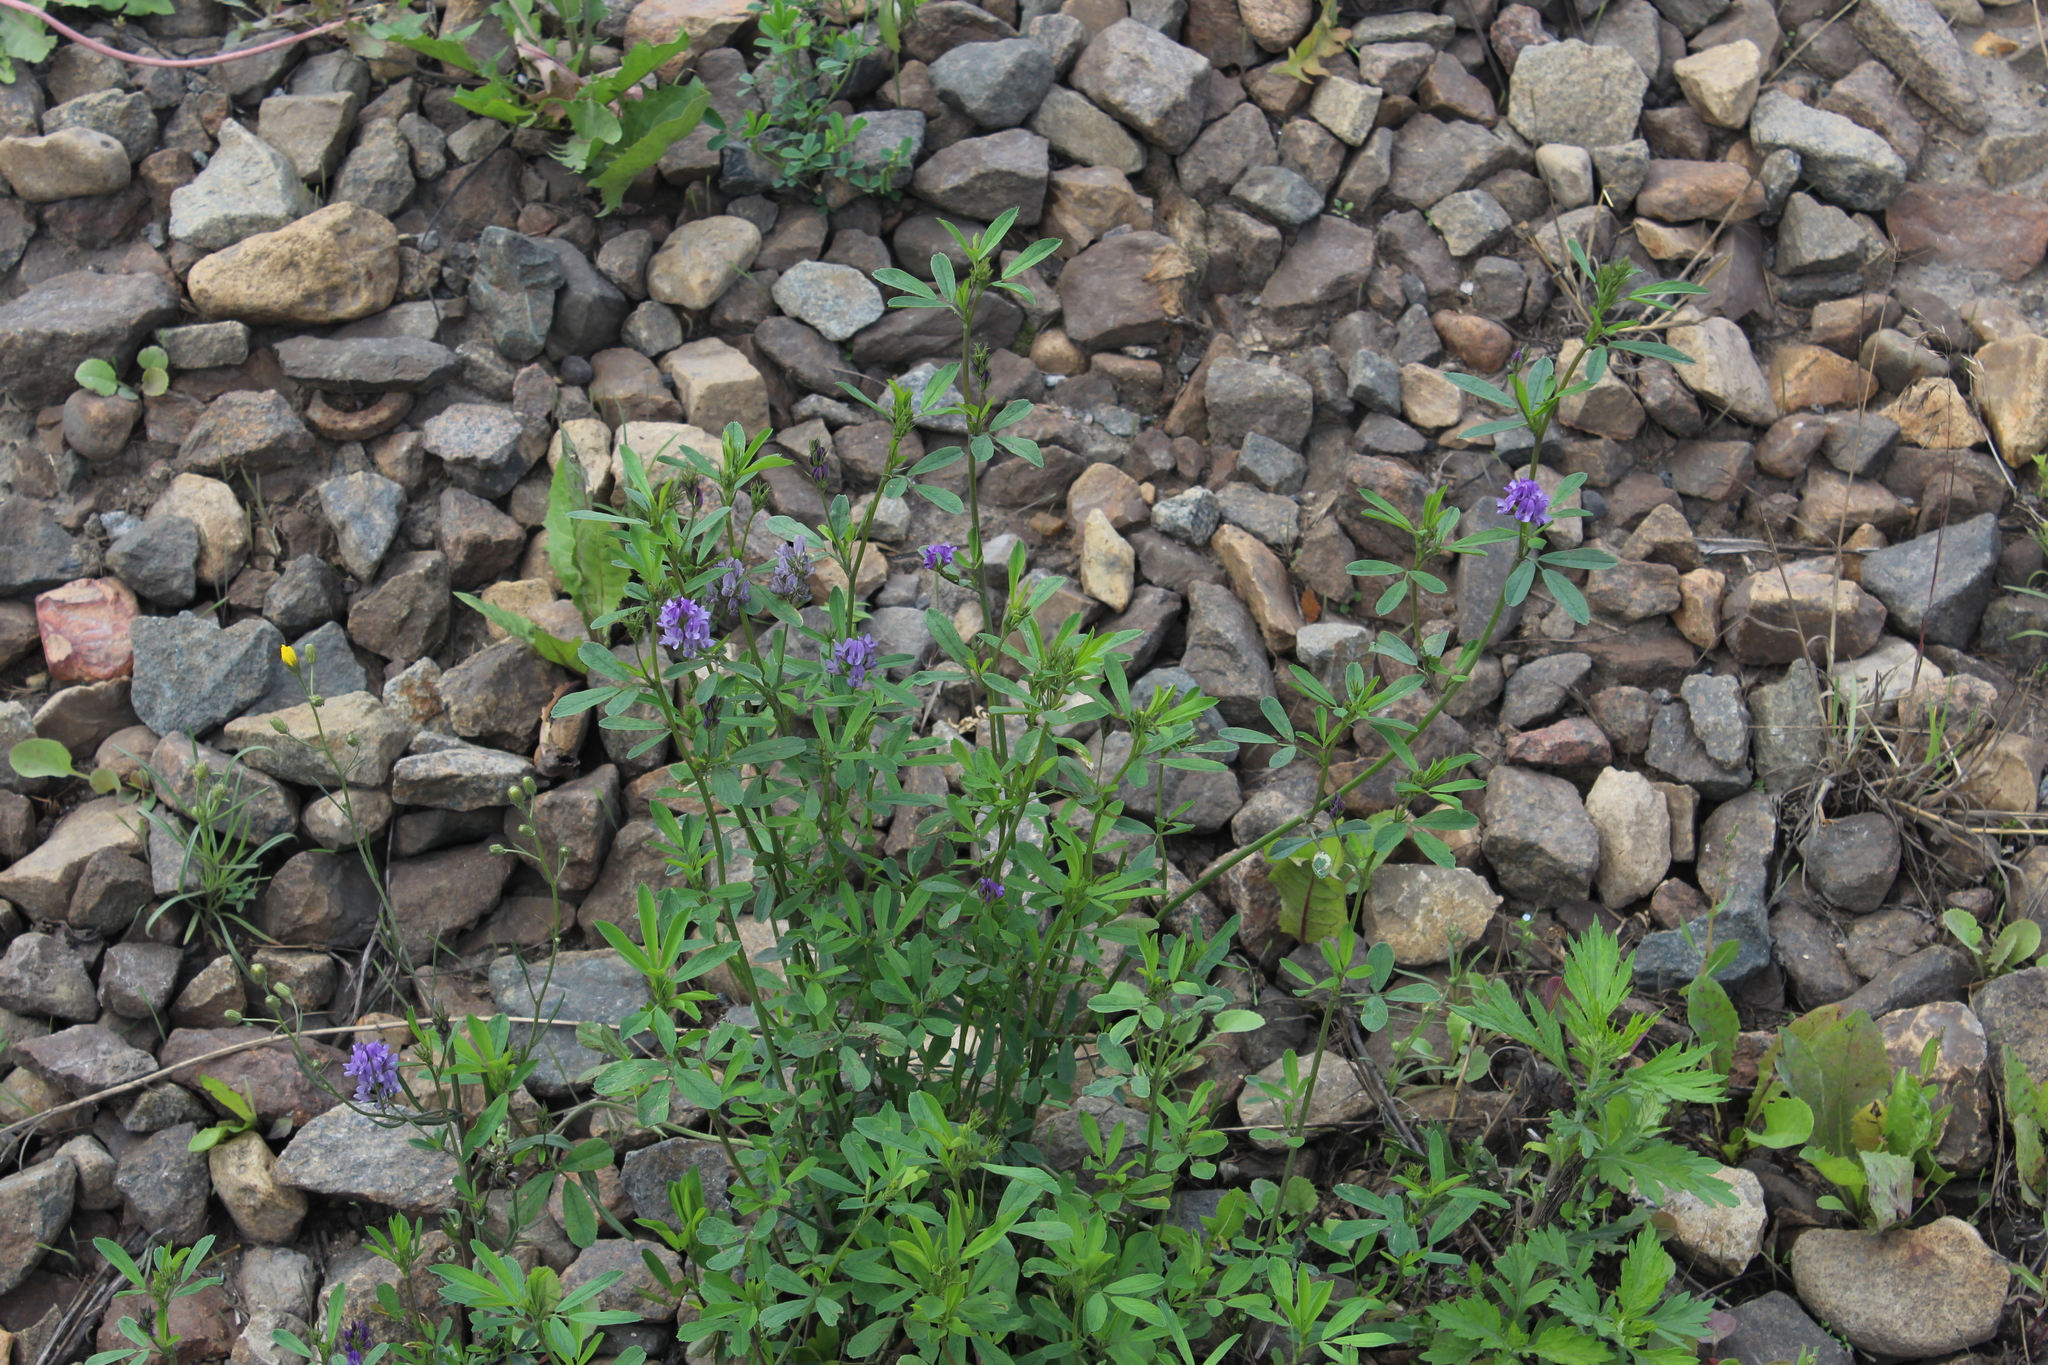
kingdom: Plantae
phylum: Tracheophyta
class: Magnoliopsida
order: Fabales
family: Fabaceae
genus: Medicago
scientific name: Medicago sativa
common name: Alfalfa
